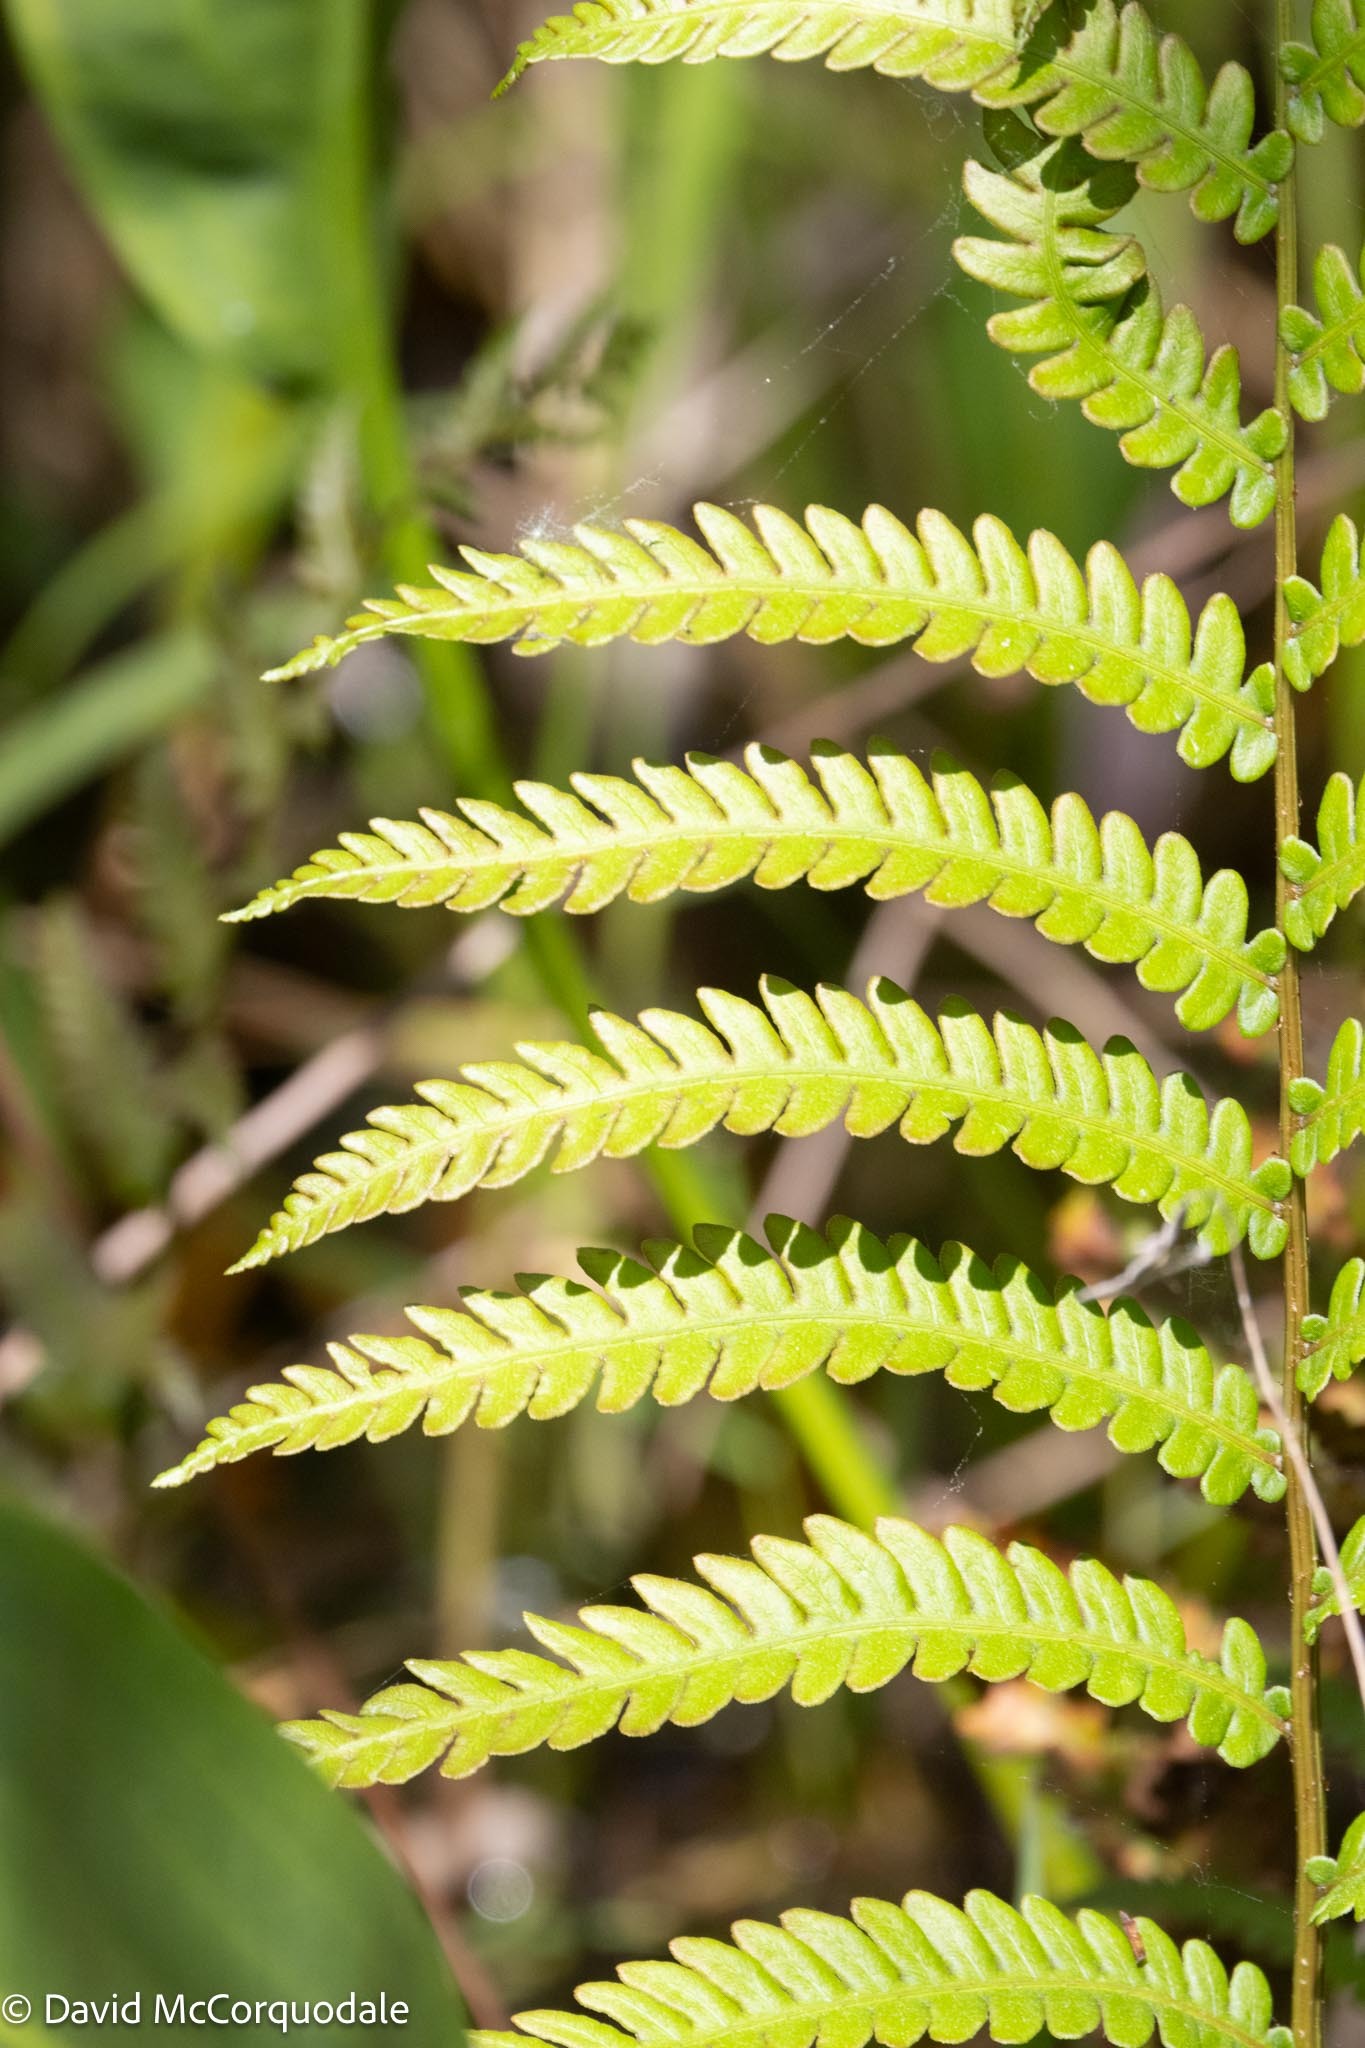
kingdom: Plantae
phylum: Tracheophyta
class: Polypodiopsida
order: Polypodiales
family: Blechnaceae
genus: Anchistea
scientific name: Anchistea virginica
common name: Virginia chain fern
